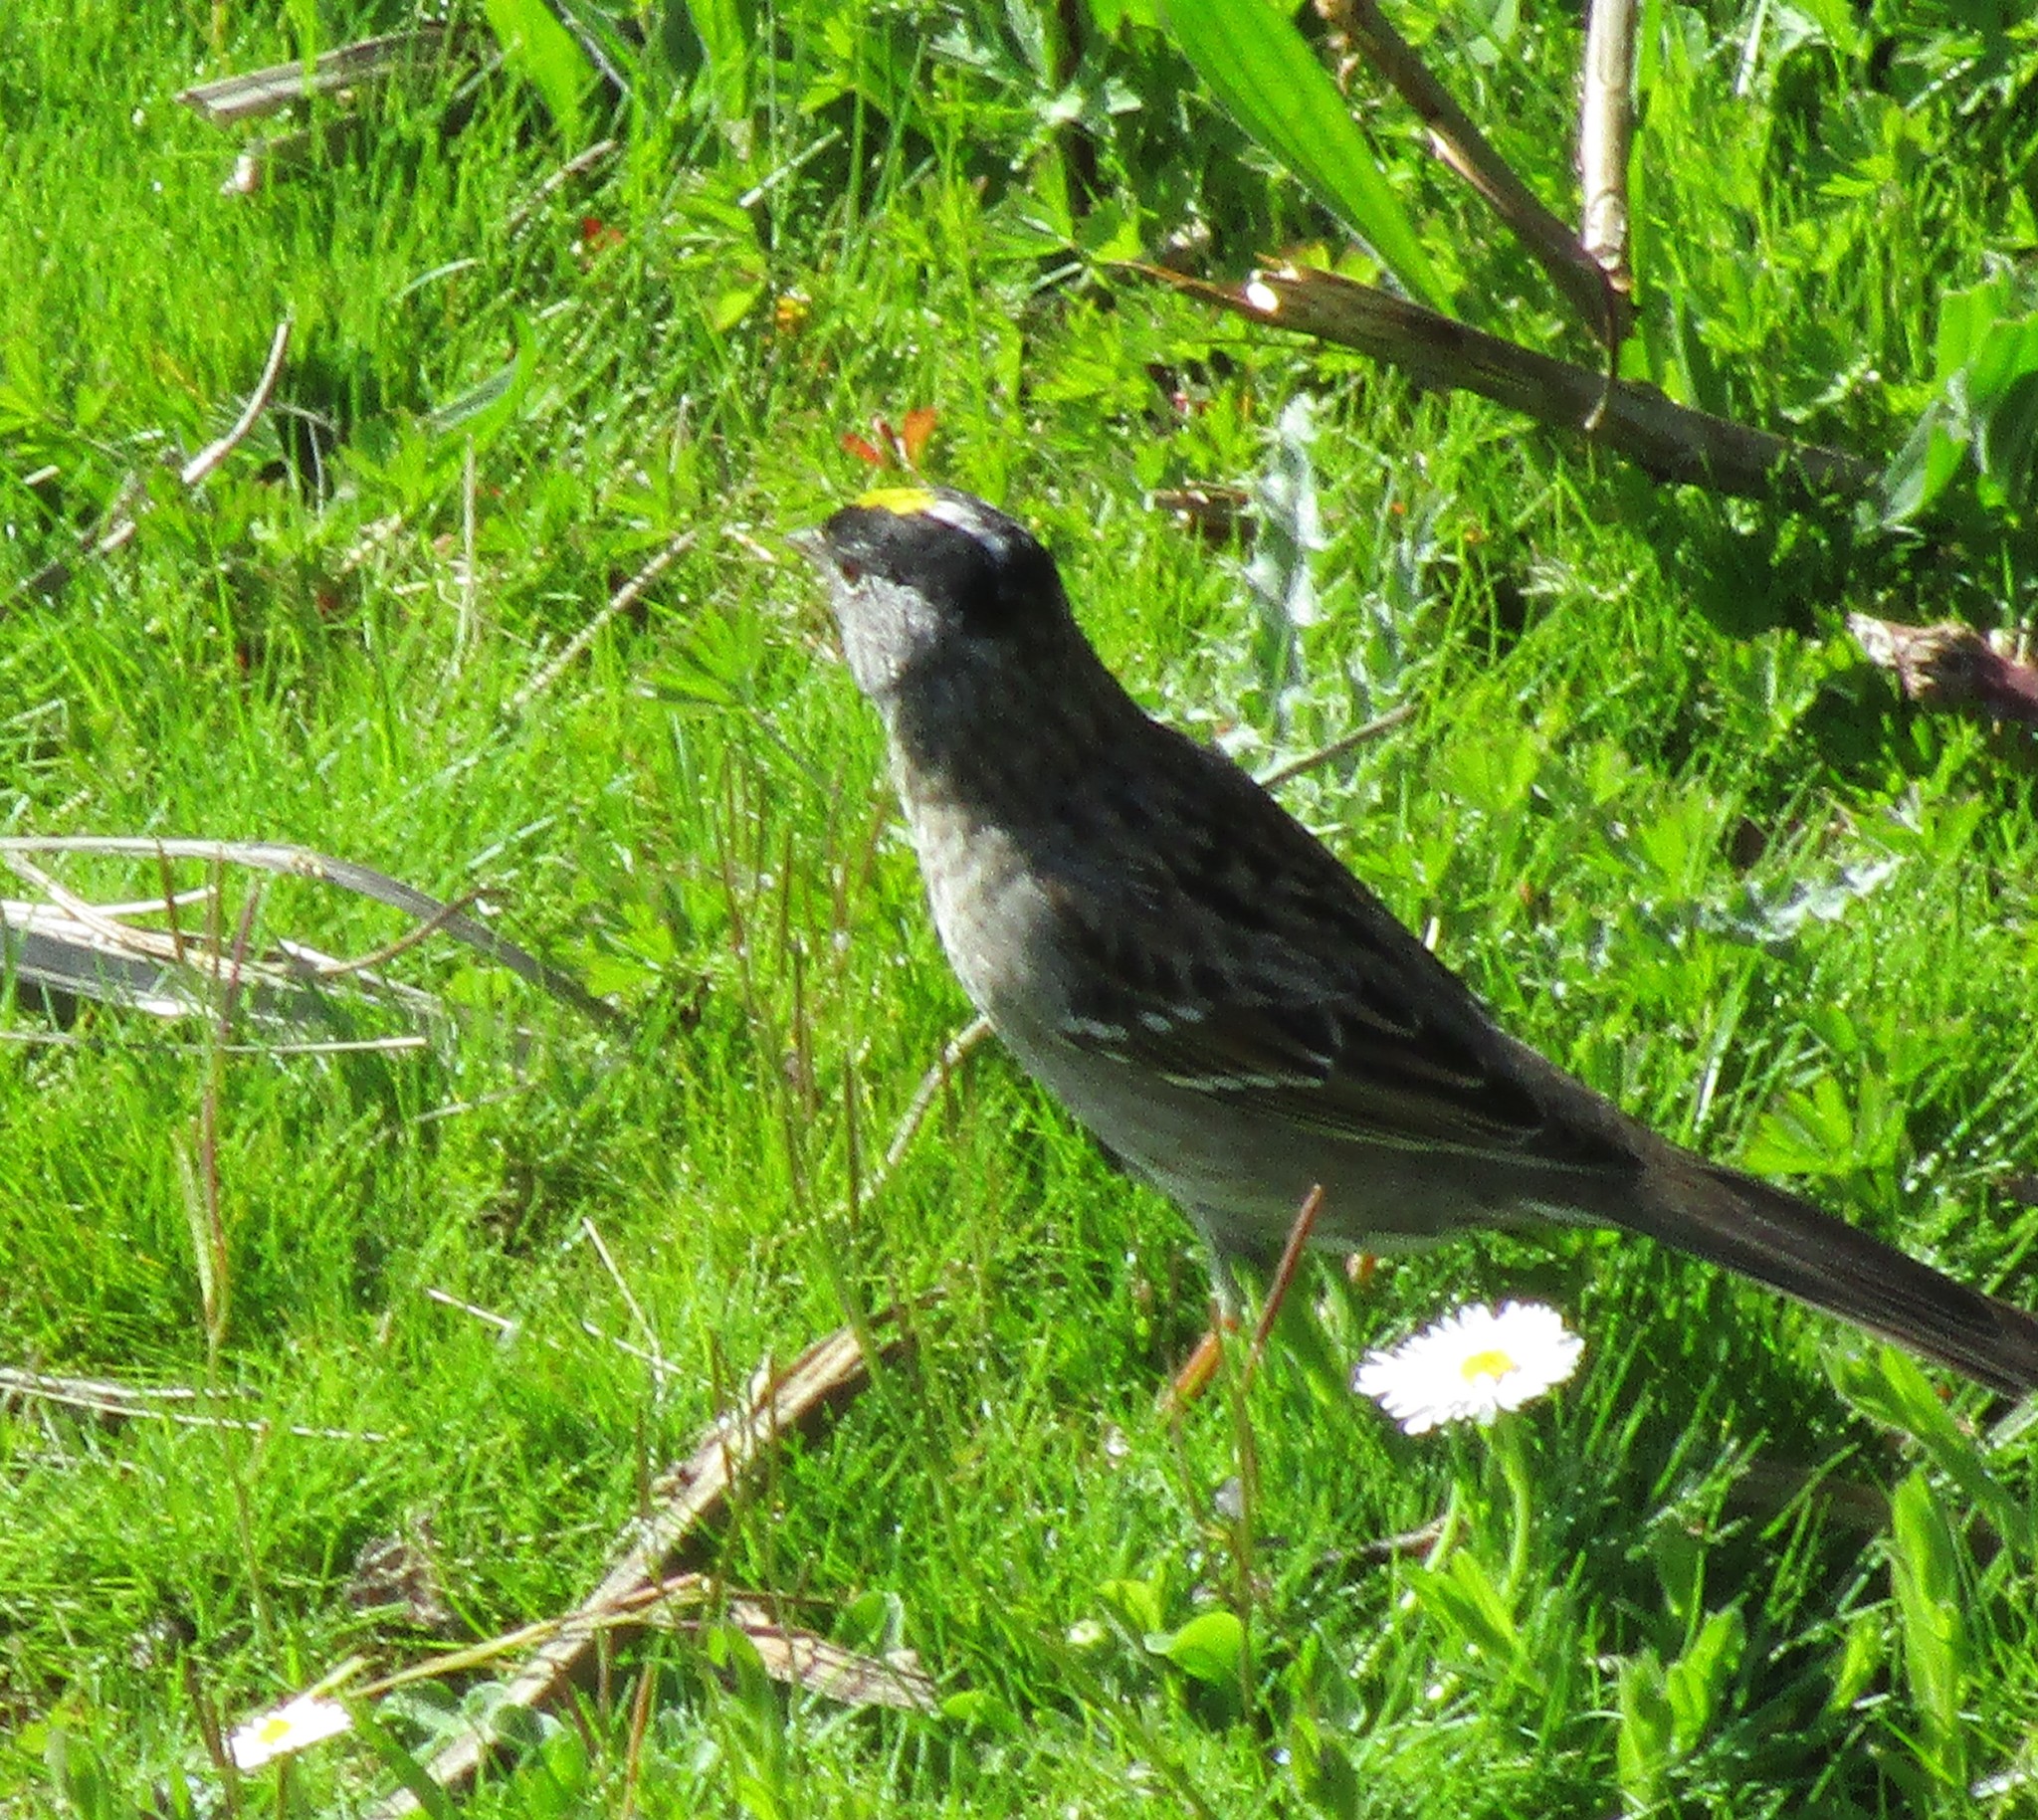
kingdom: Animalia
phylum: Chordata
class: Aves
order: Passeriformes
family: Passerellidae
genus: Zonotrichia
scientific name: Zonotrichia atricapilla
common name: Golden-crowned sparrow
